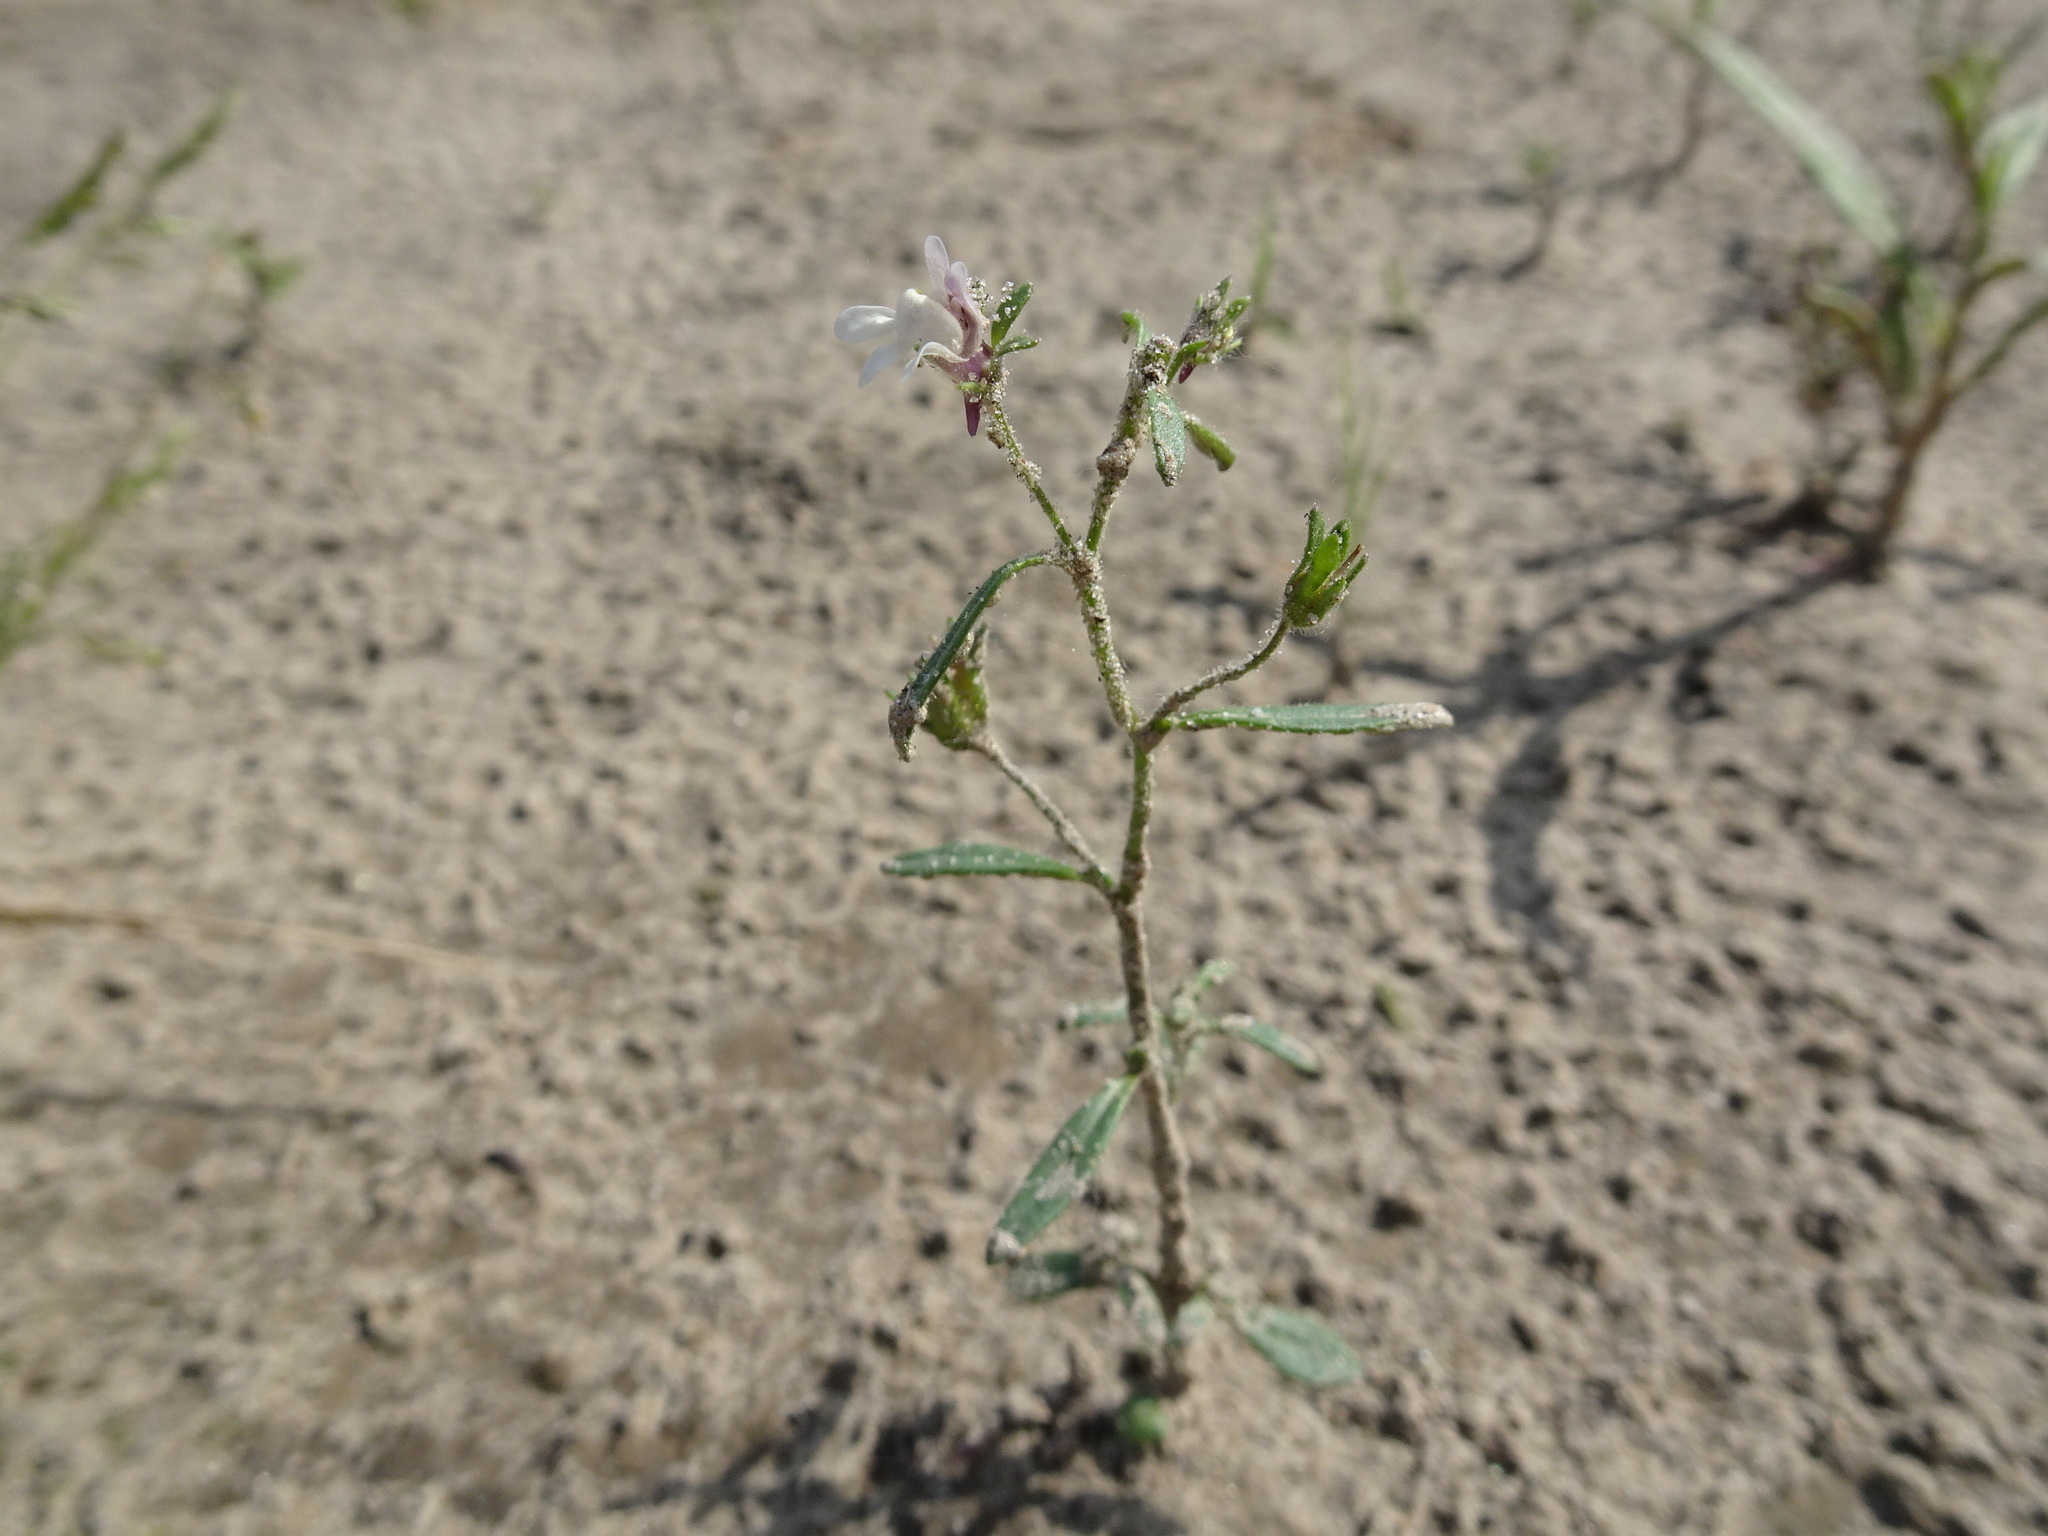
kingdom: Plantae
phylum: Tracheophyta
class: Magnoliopsida
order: Lamiales
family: Plantaginaceae
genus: Chaenorhinum
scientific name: Chaenorhinum minus
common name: Dwarf snapdragon
